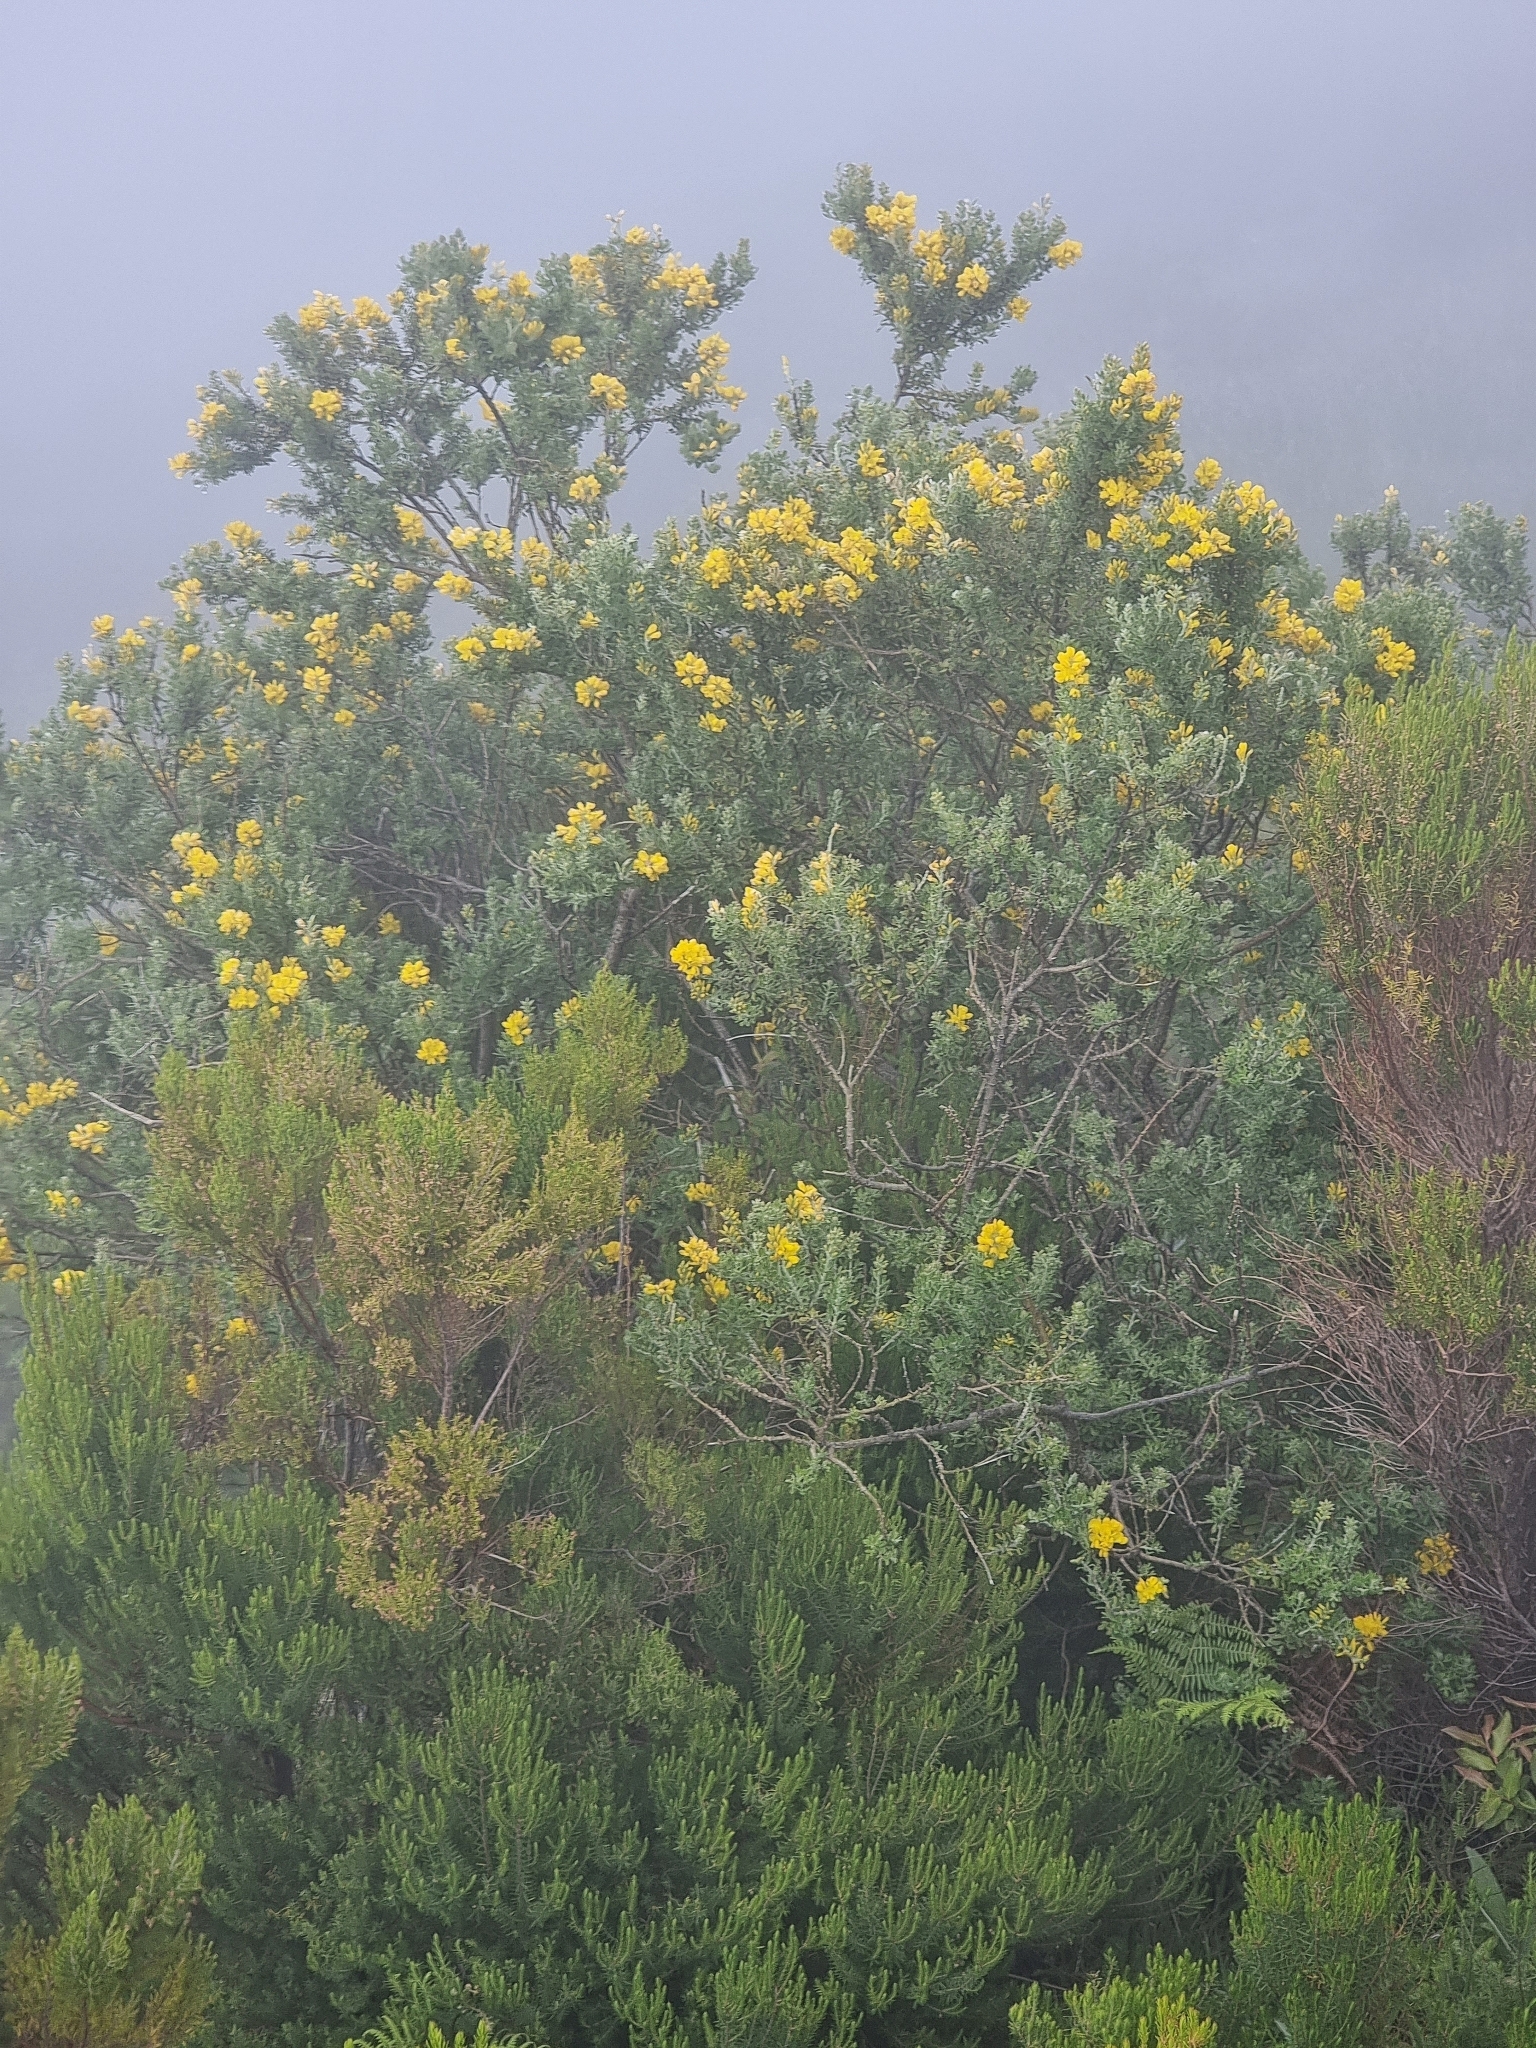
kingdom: Plantae
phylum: Tracheophyta
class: Magnoliopsida
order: Fabales
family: Fabaceae
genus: Genista
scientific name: Genista maderensis
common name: Madeira dyer's greenweed
